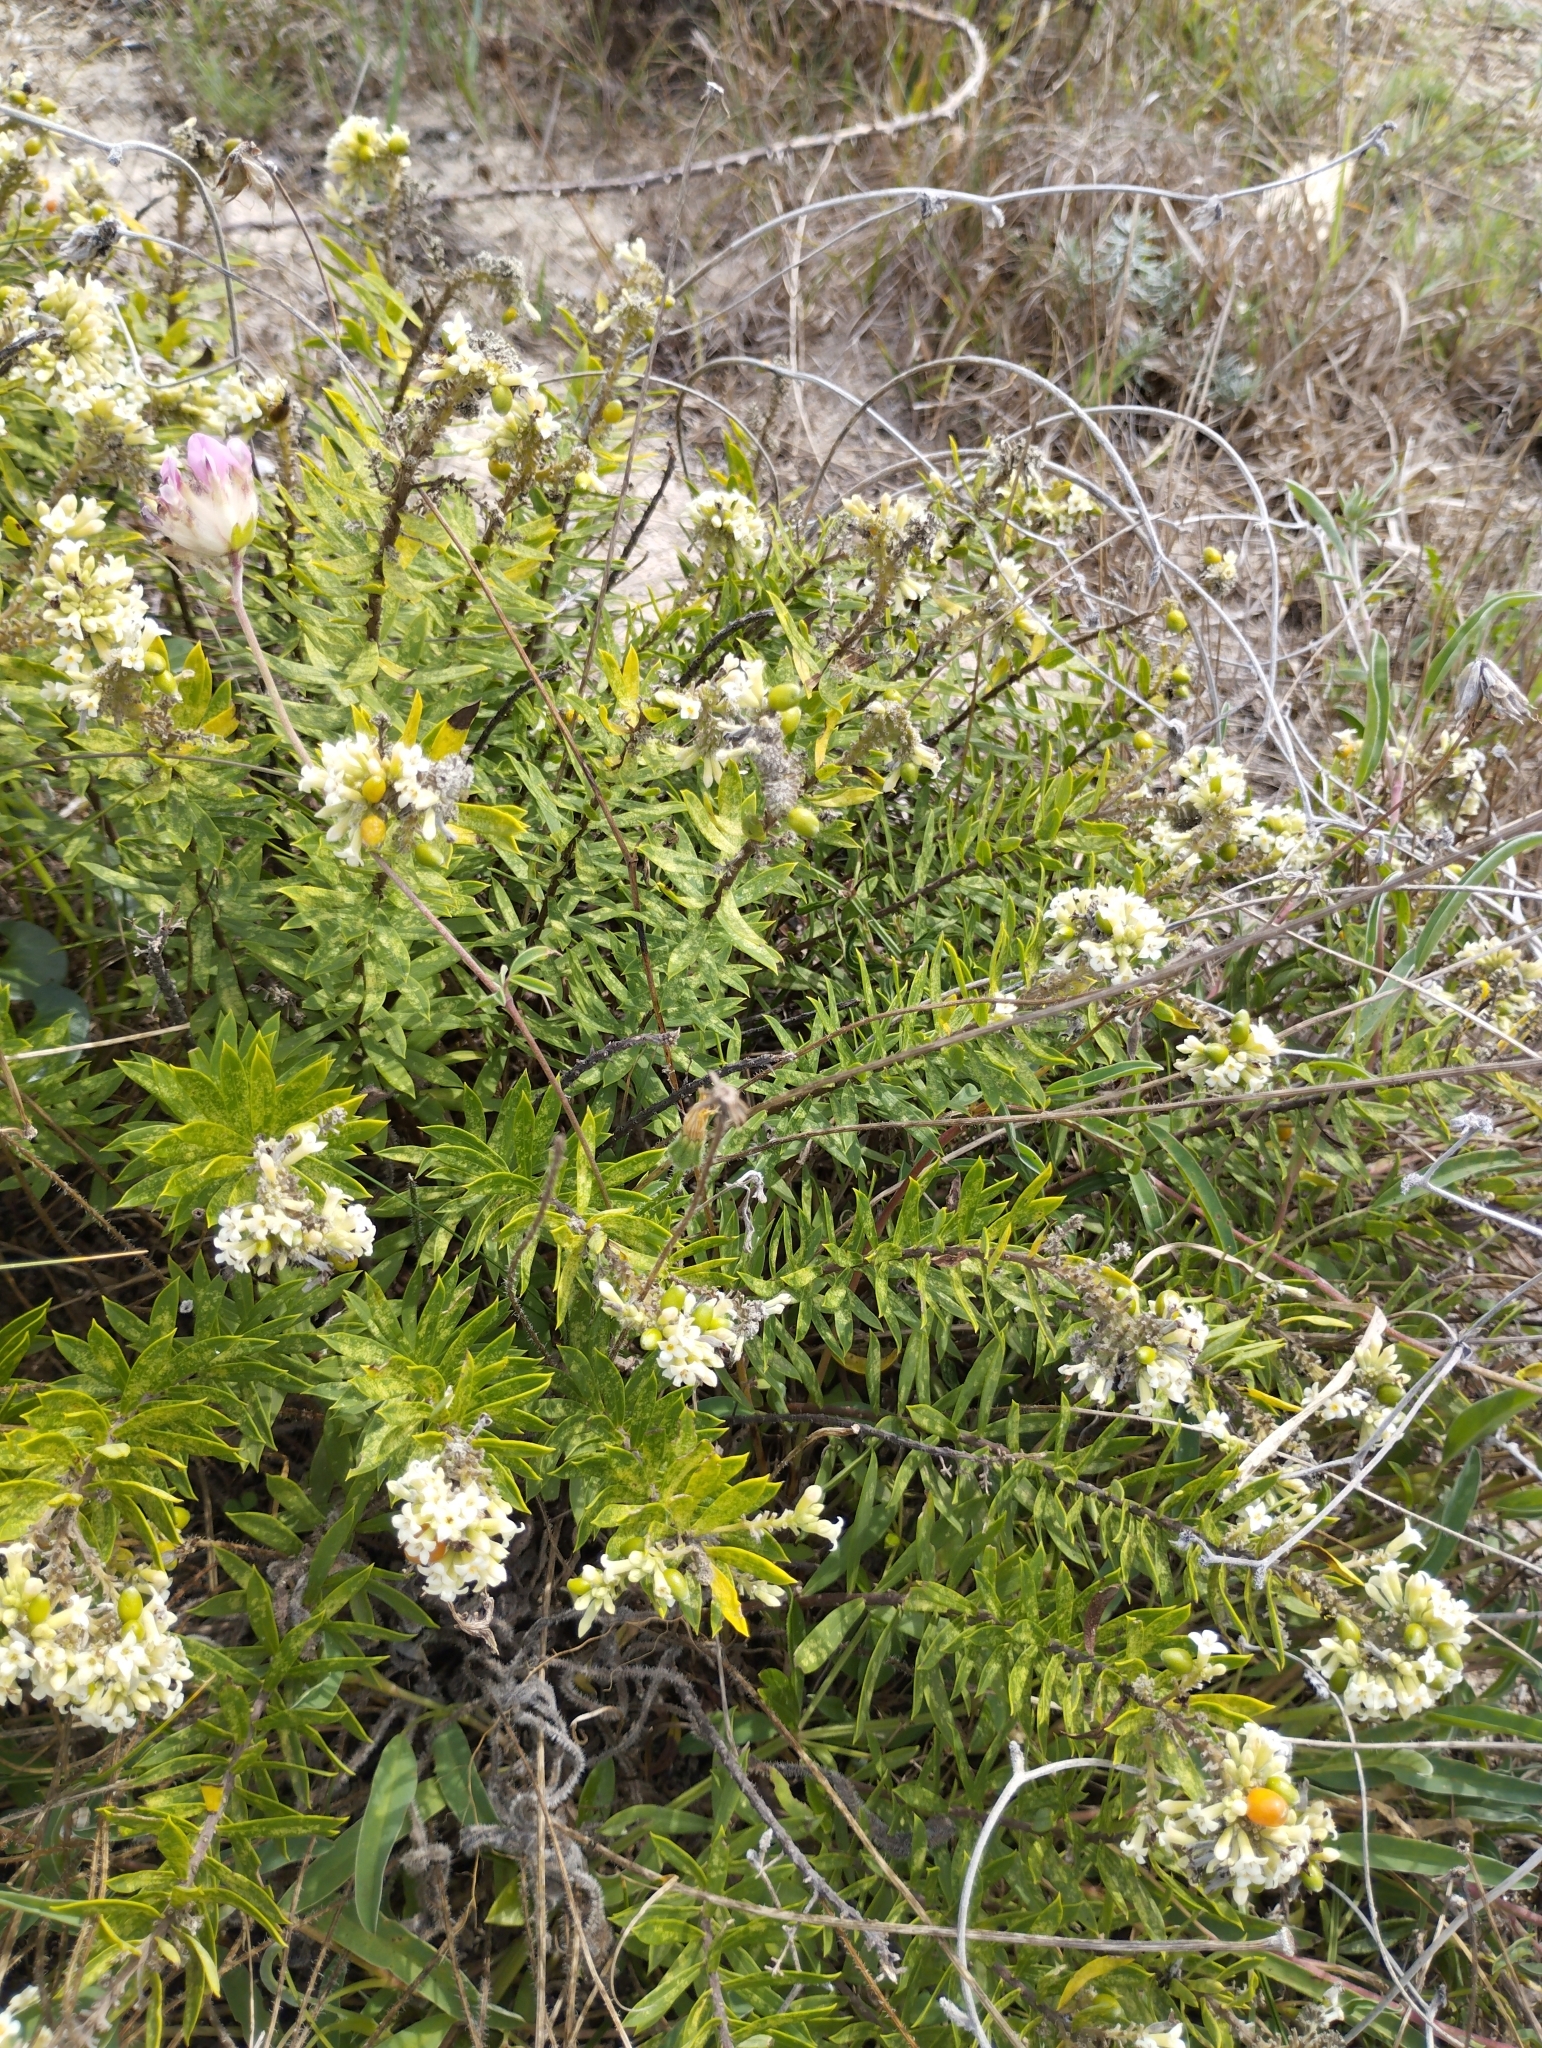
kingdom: Plantae
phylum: Tracheophyta
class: Magnoliopsida
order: Malvales
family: Thymelaeaceae
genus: Daphne
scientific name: Daphne gnidium
